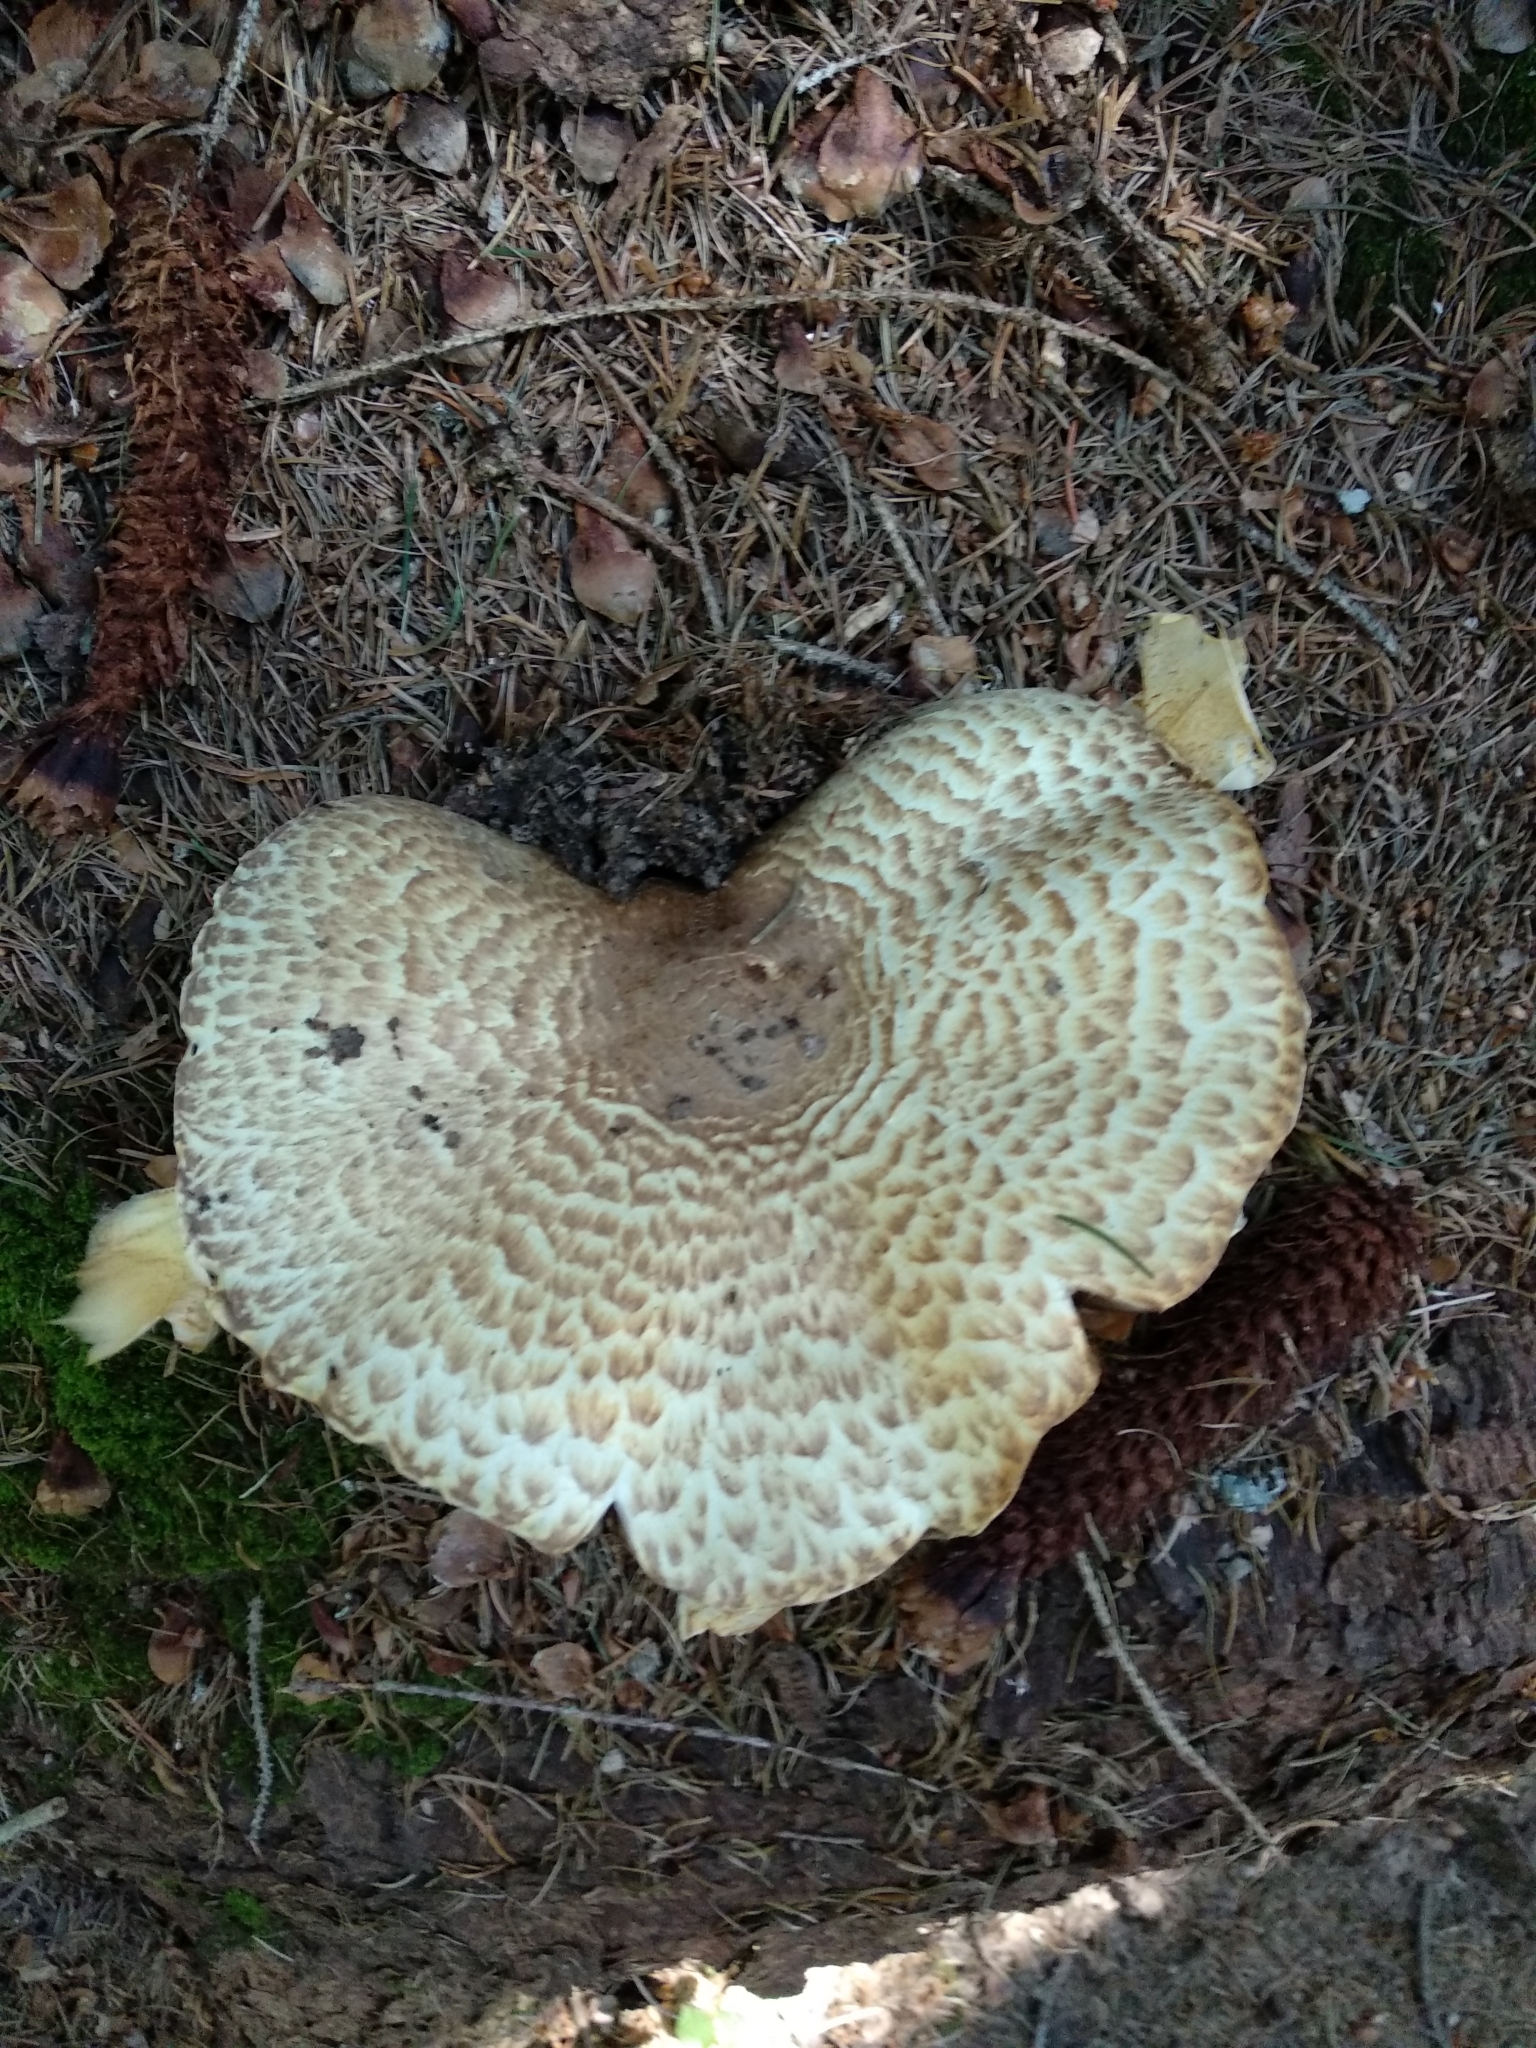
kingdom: Fungi
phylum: Basidiomycota
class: Agaricomycetes
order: Agaricales
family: Agaricaceae
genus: Agaricus
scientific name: Agaricus augustus
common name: Prince
